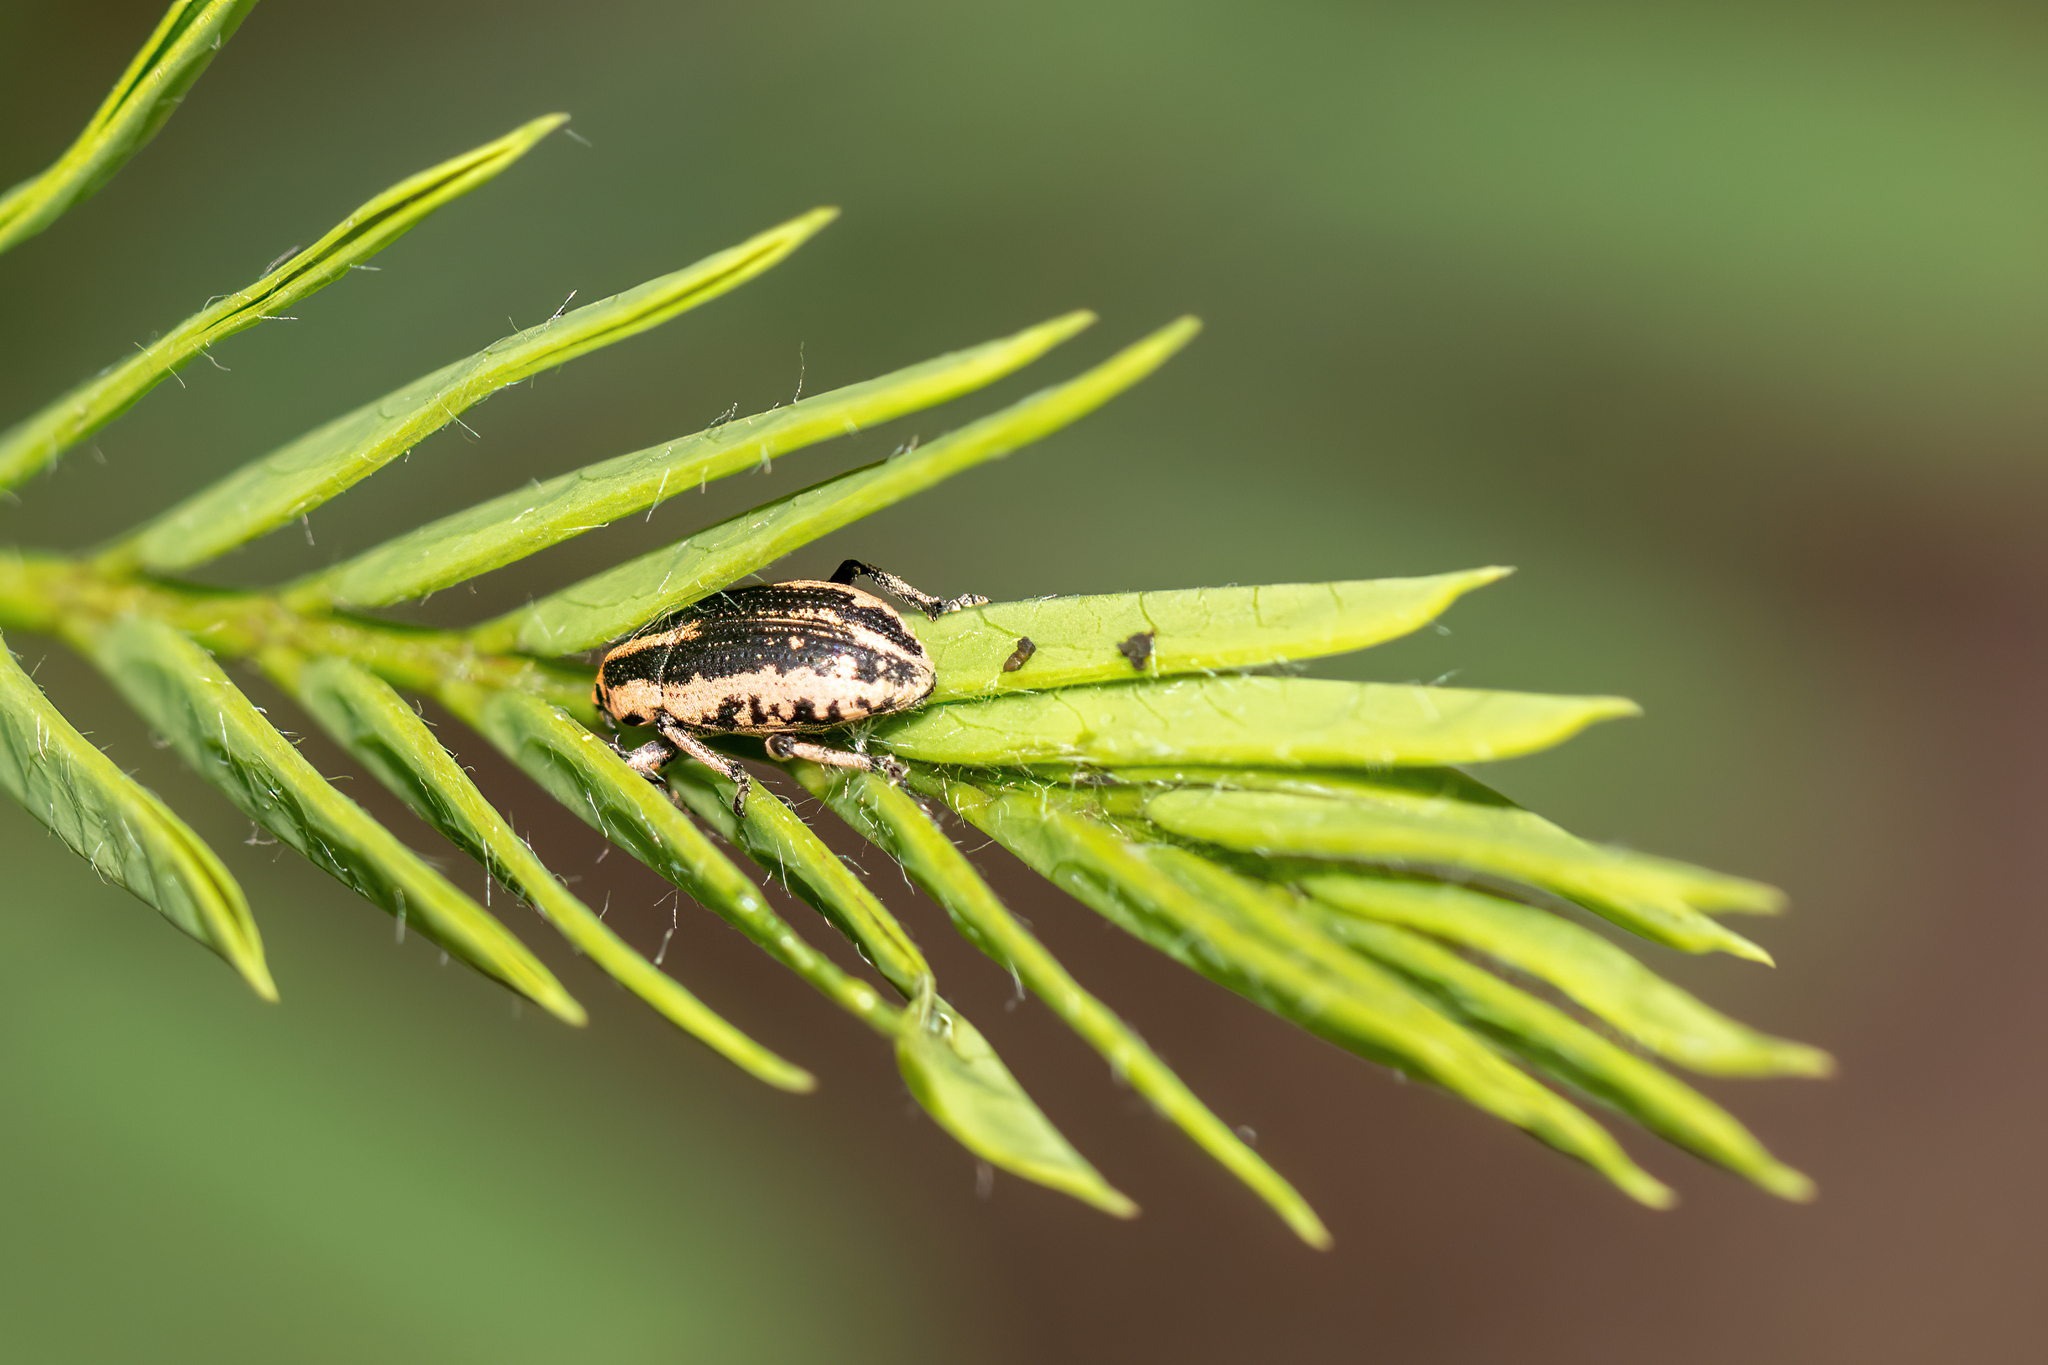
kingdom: Animalia
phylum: Arthropoda
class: Insecta
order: Coleoptera
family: Curculionidae
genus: Eudiagogus
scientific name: Eudiagogus rosenschoeldi
